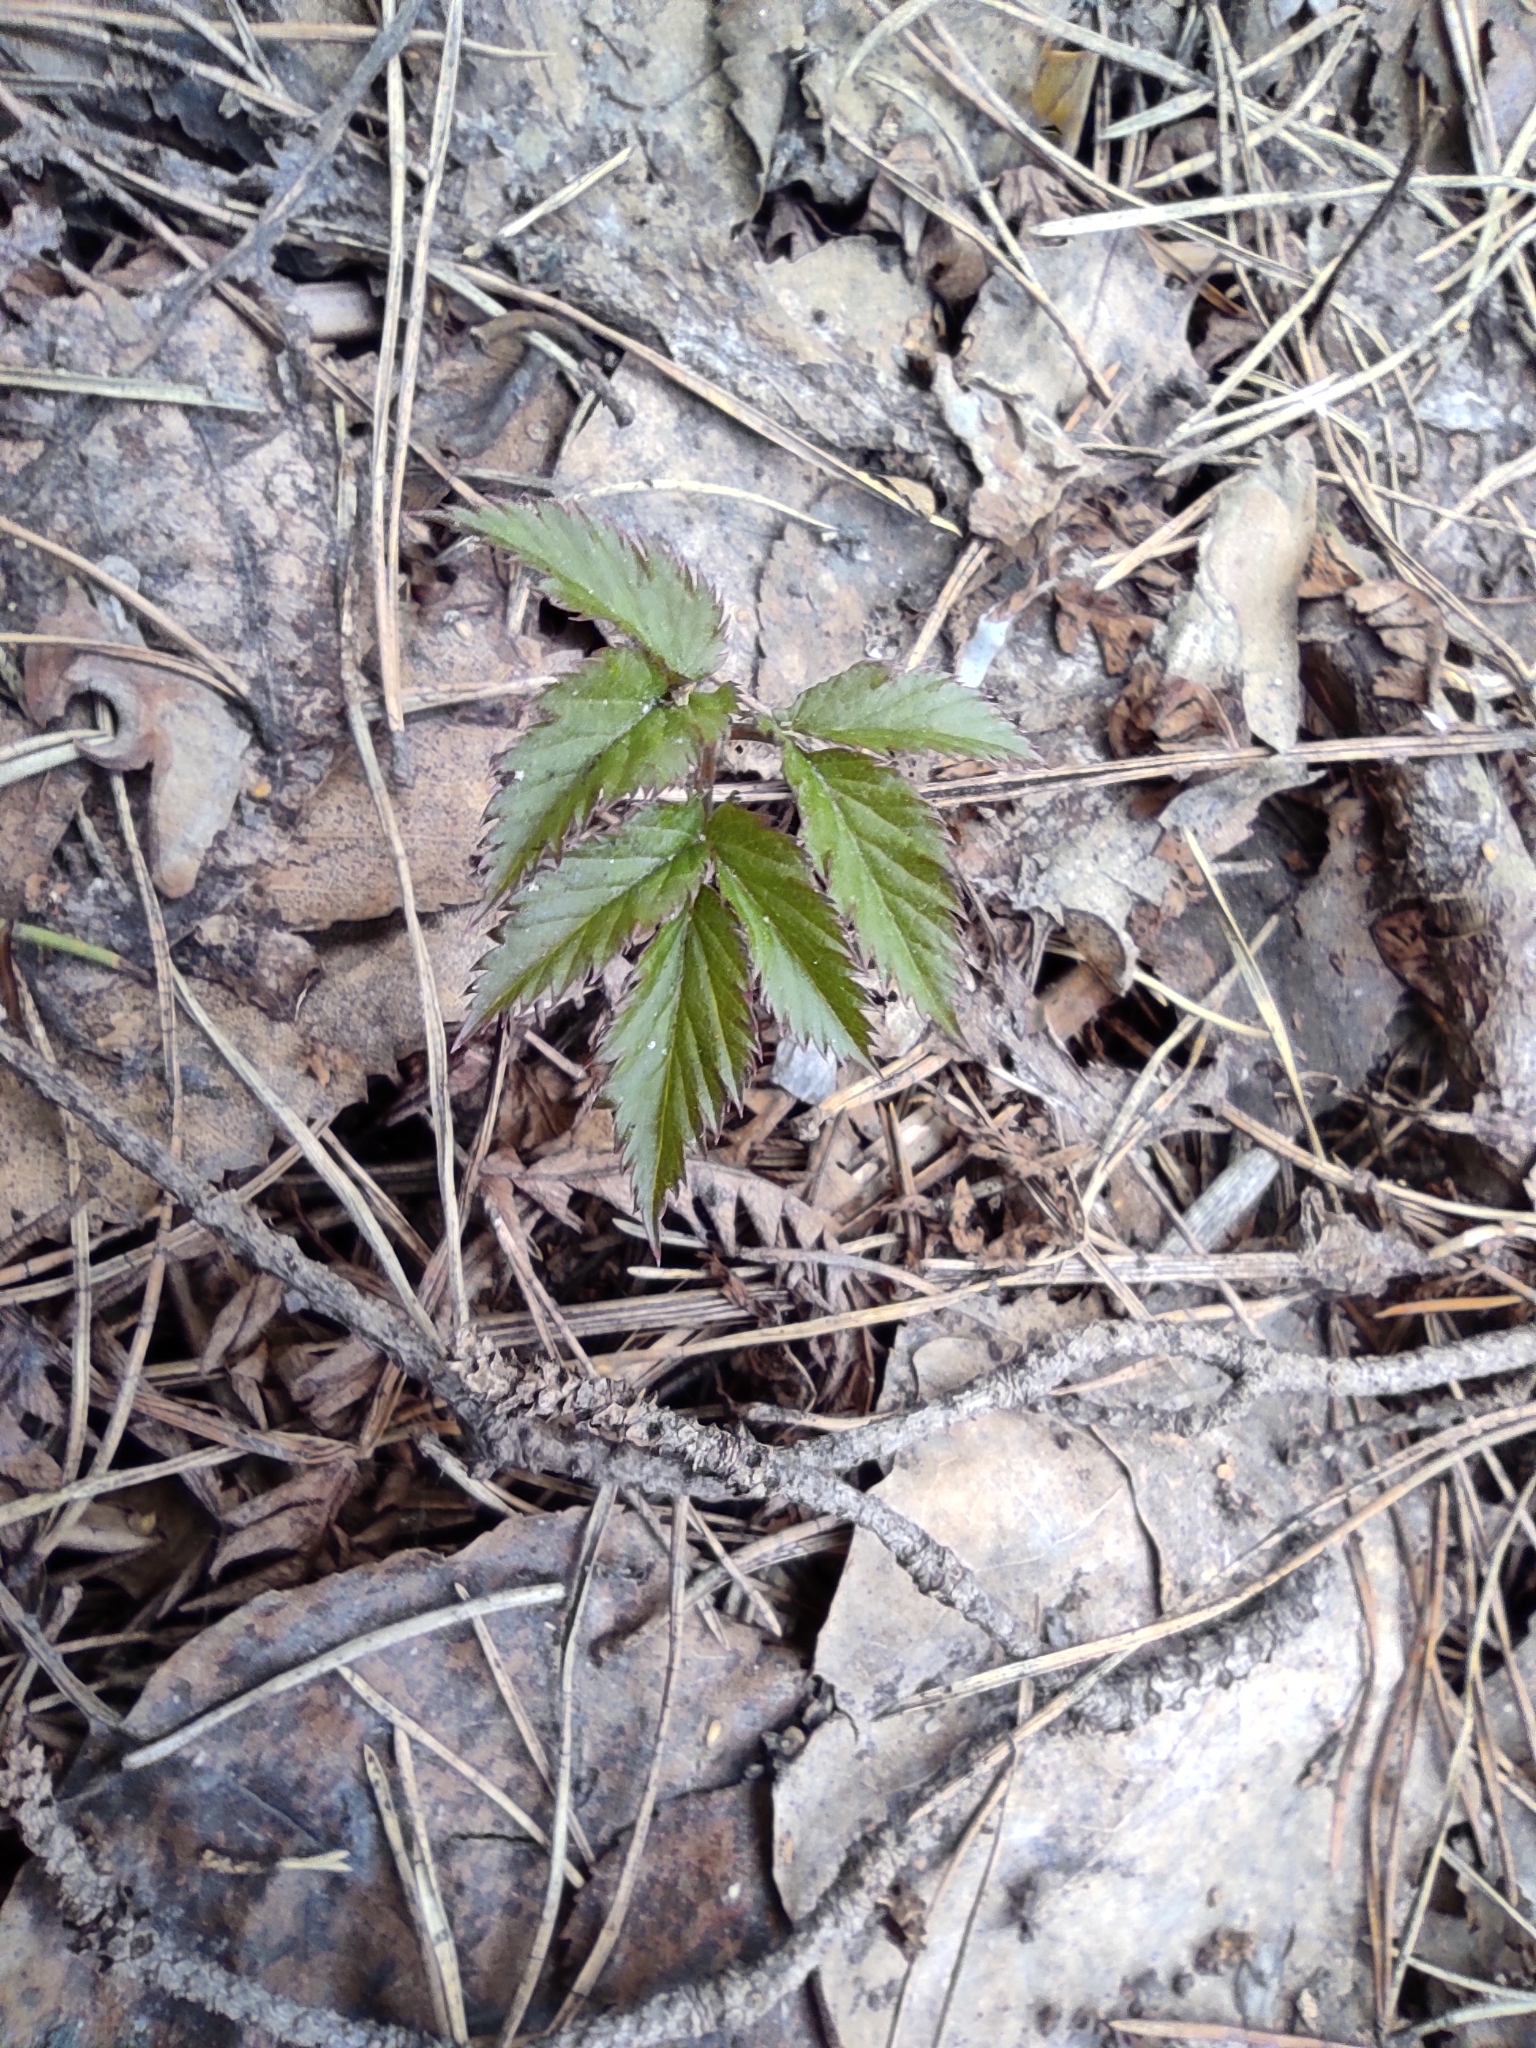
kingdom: Plantae
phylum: Tracheophyta
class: Magnoliopsida
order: Apiales
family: Apiaceae
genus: Aegopodium
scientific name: Aegopodium podagraria
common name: Ground-elder
